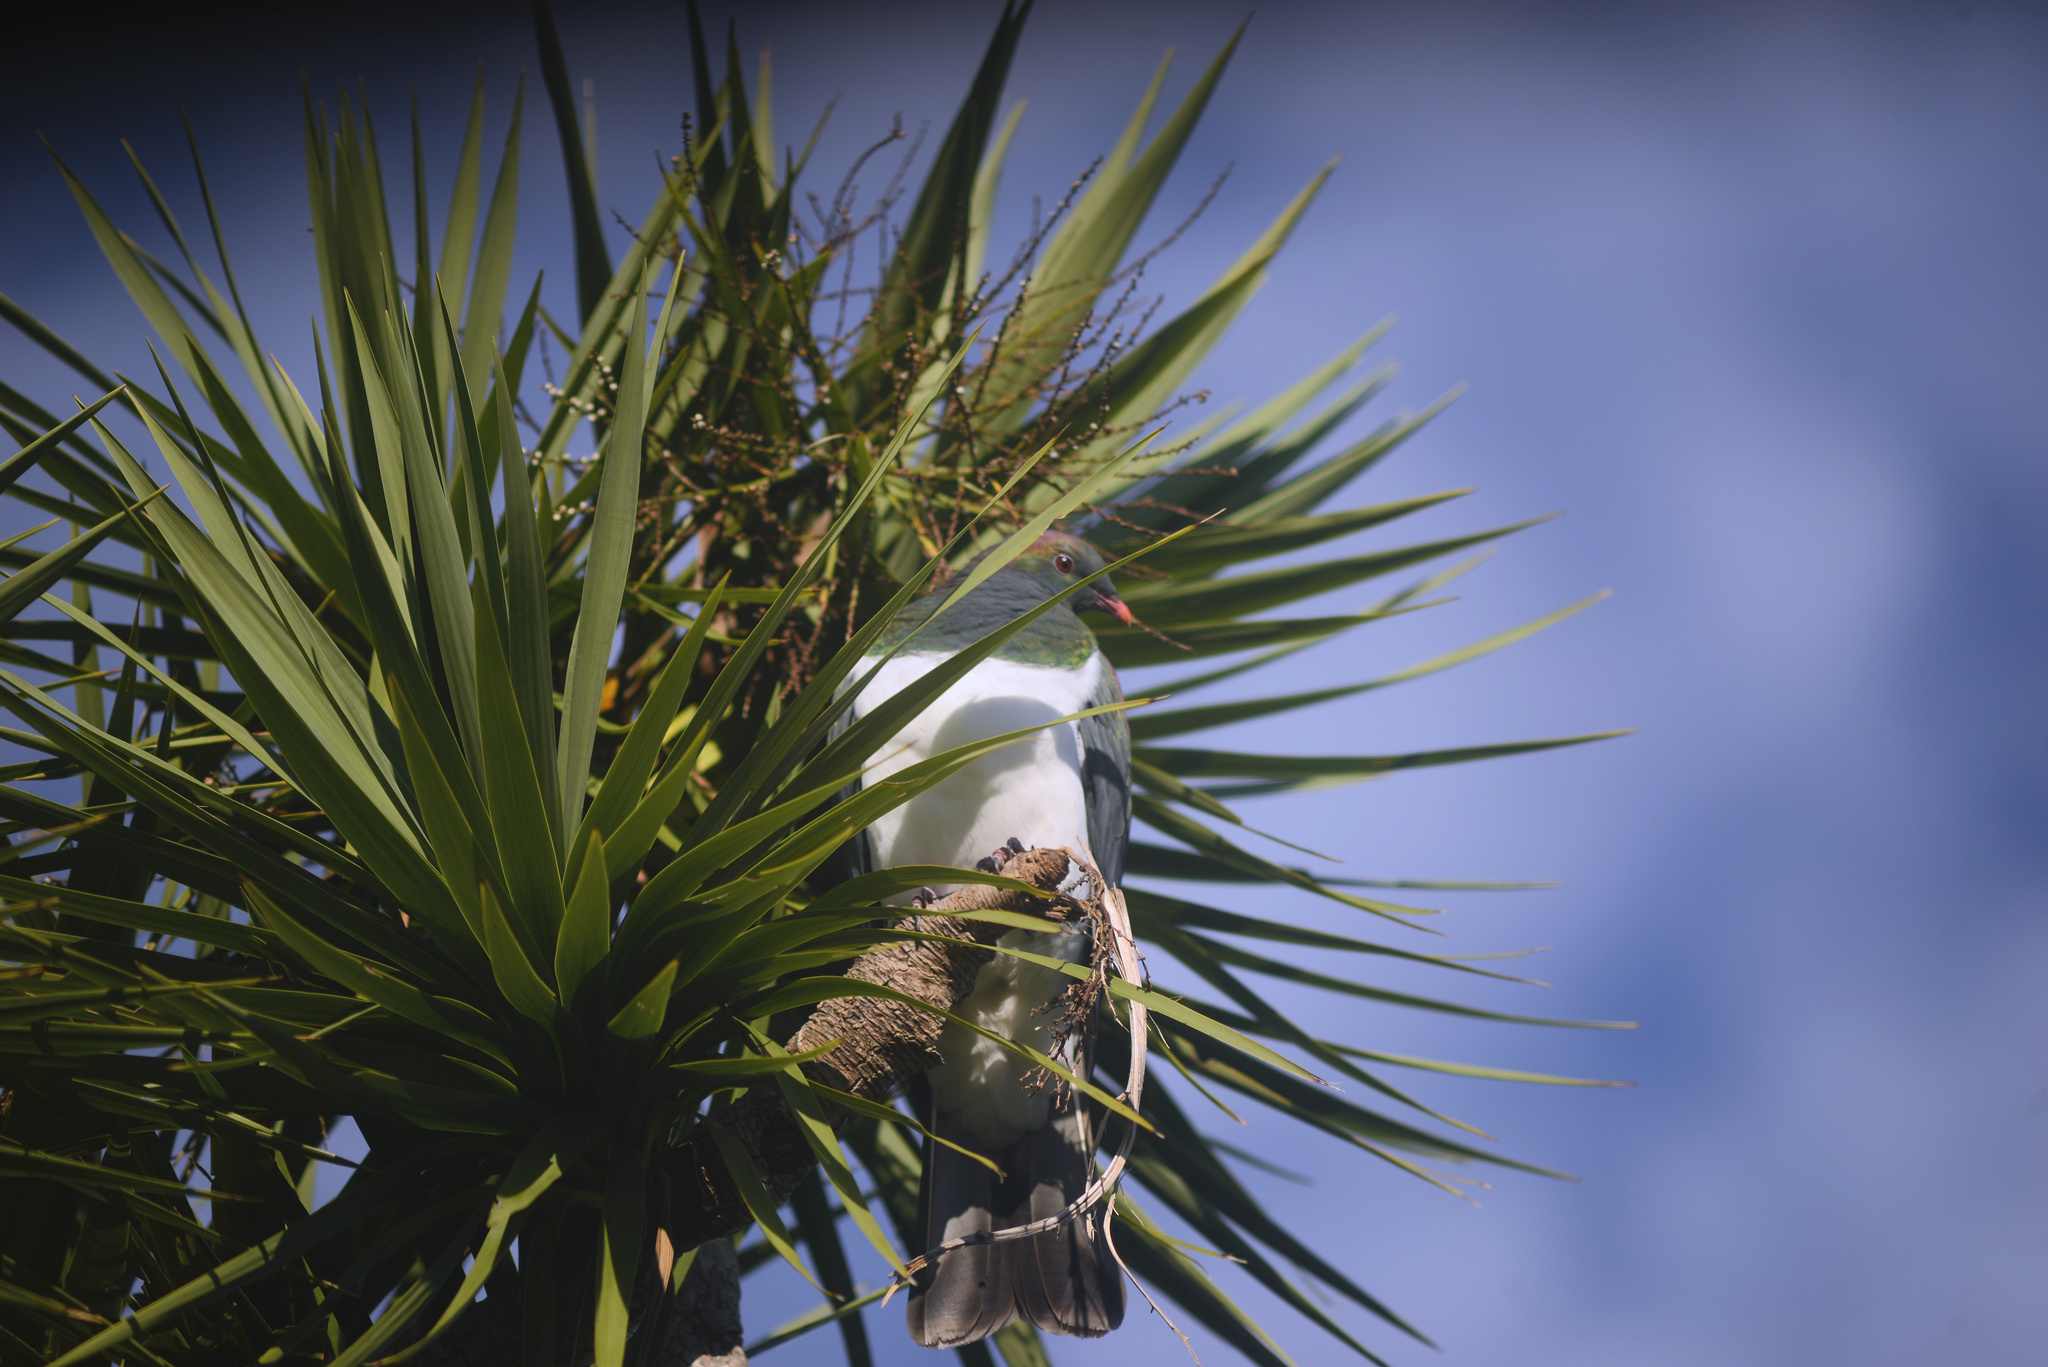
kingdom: Animalia
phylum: Chordata
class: Aves
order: Columbiformes
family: Columbidae
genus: Hemiphaga
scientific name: Hemiphaga novaeseelandiae
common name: New zealand pigeon
